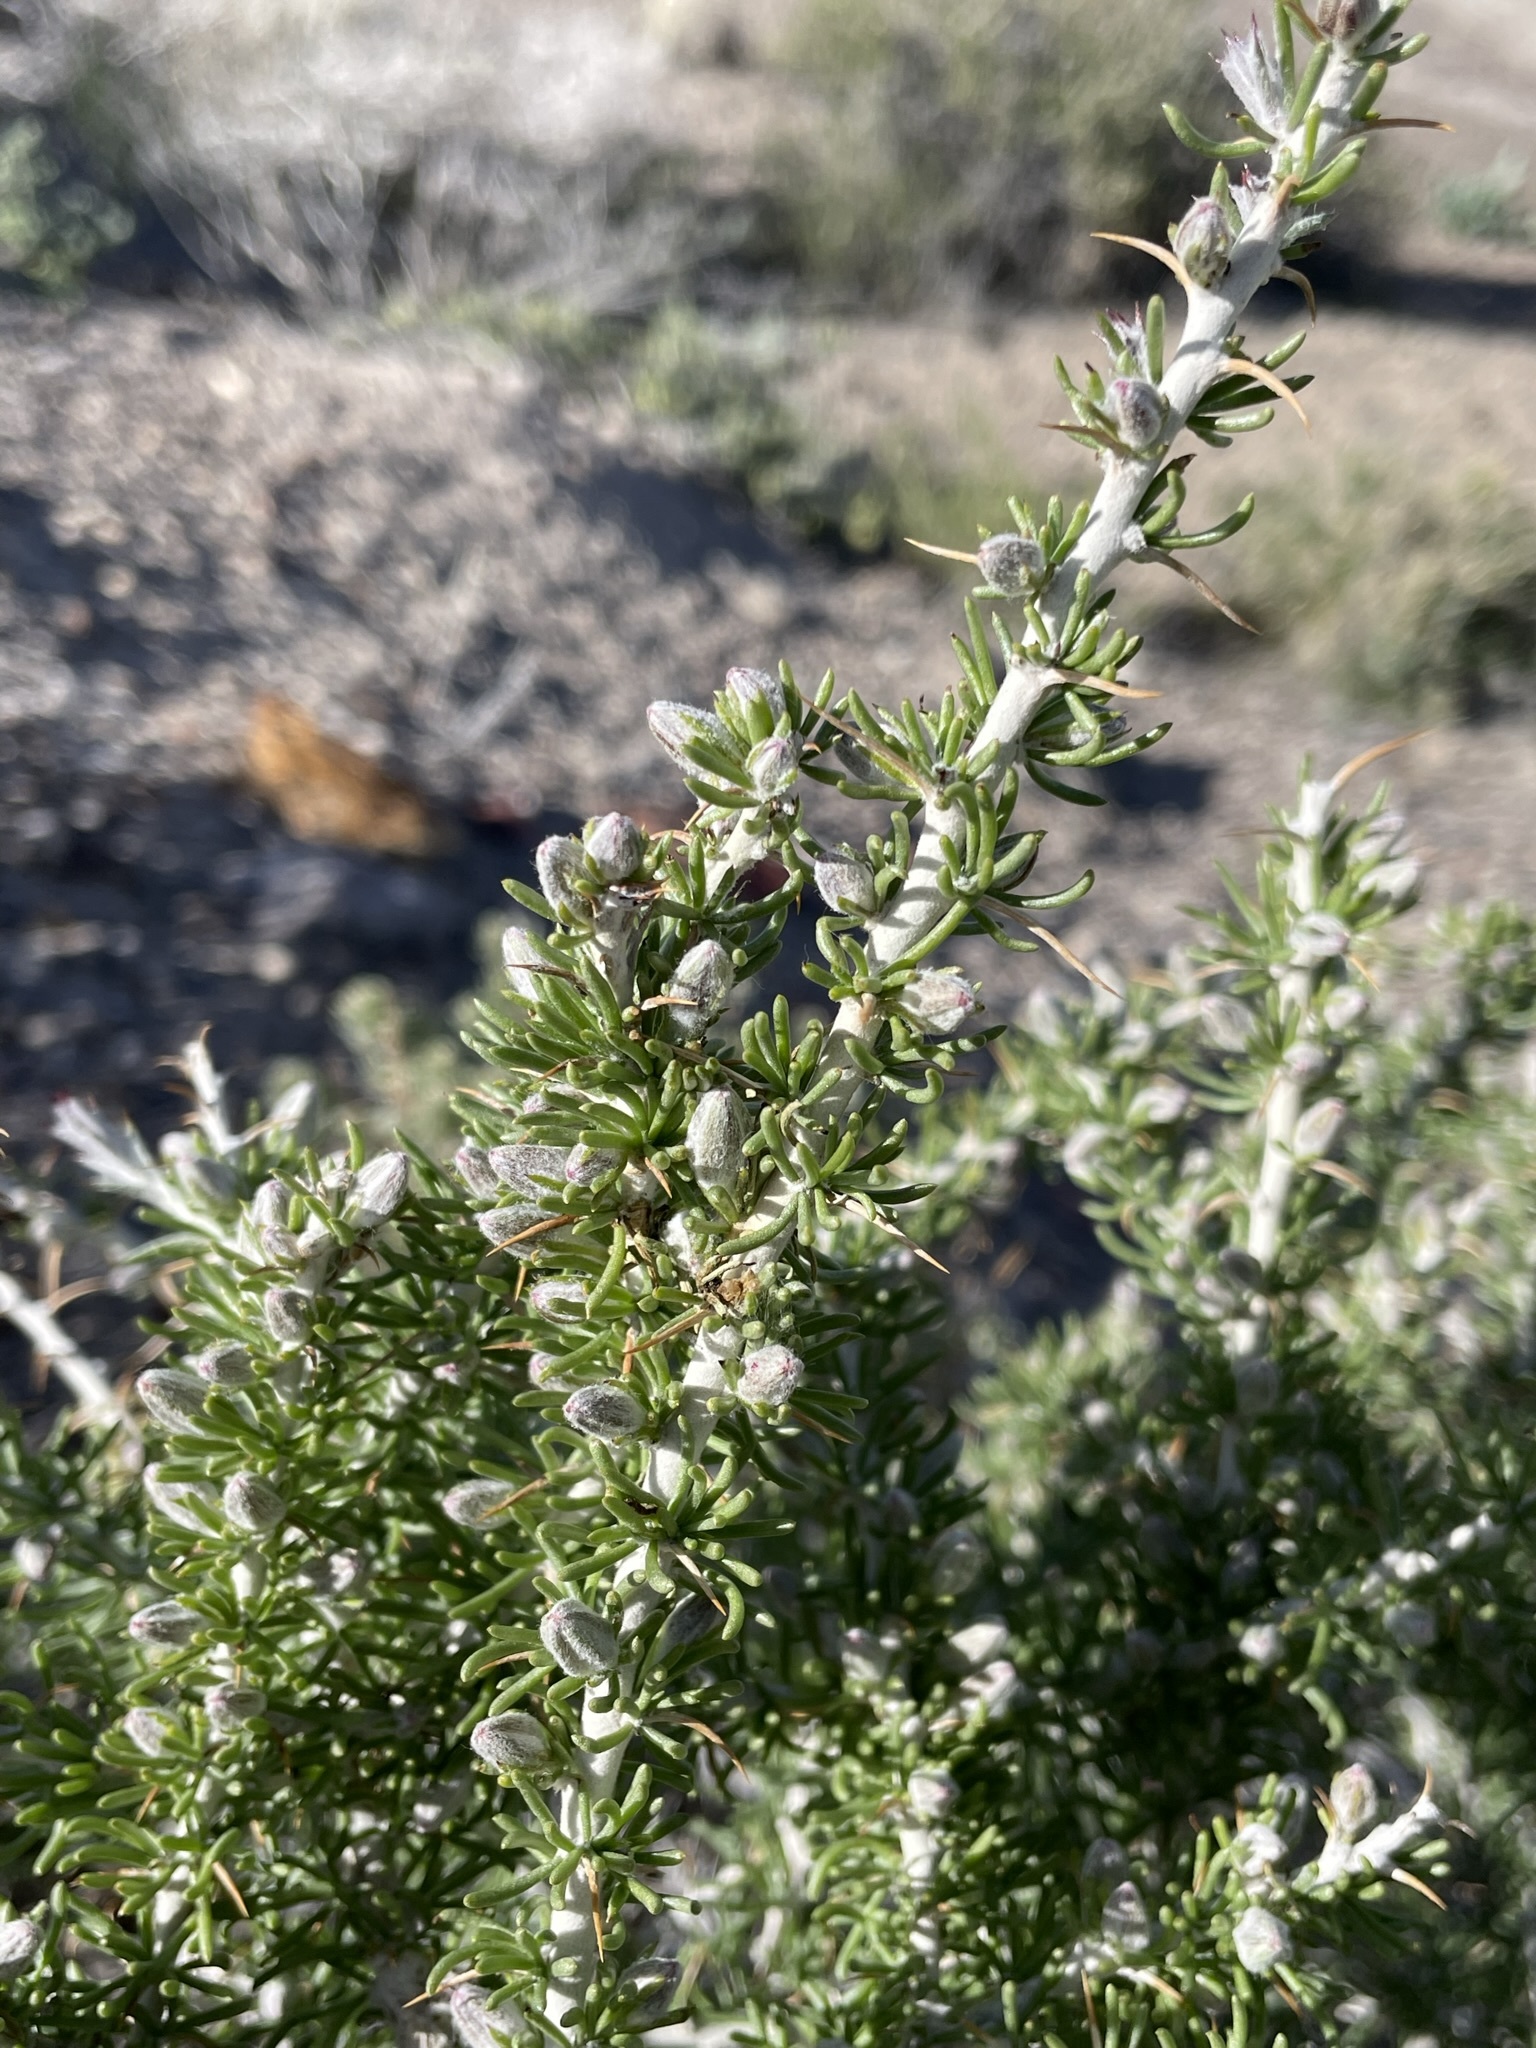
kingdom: Plantae
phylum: Tracheophyta
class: Magnoliopsida
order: Asterales
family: Asteraceae
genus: Tetradymia
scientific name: Tetradymia spinosa
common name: Thorny horsebrush
